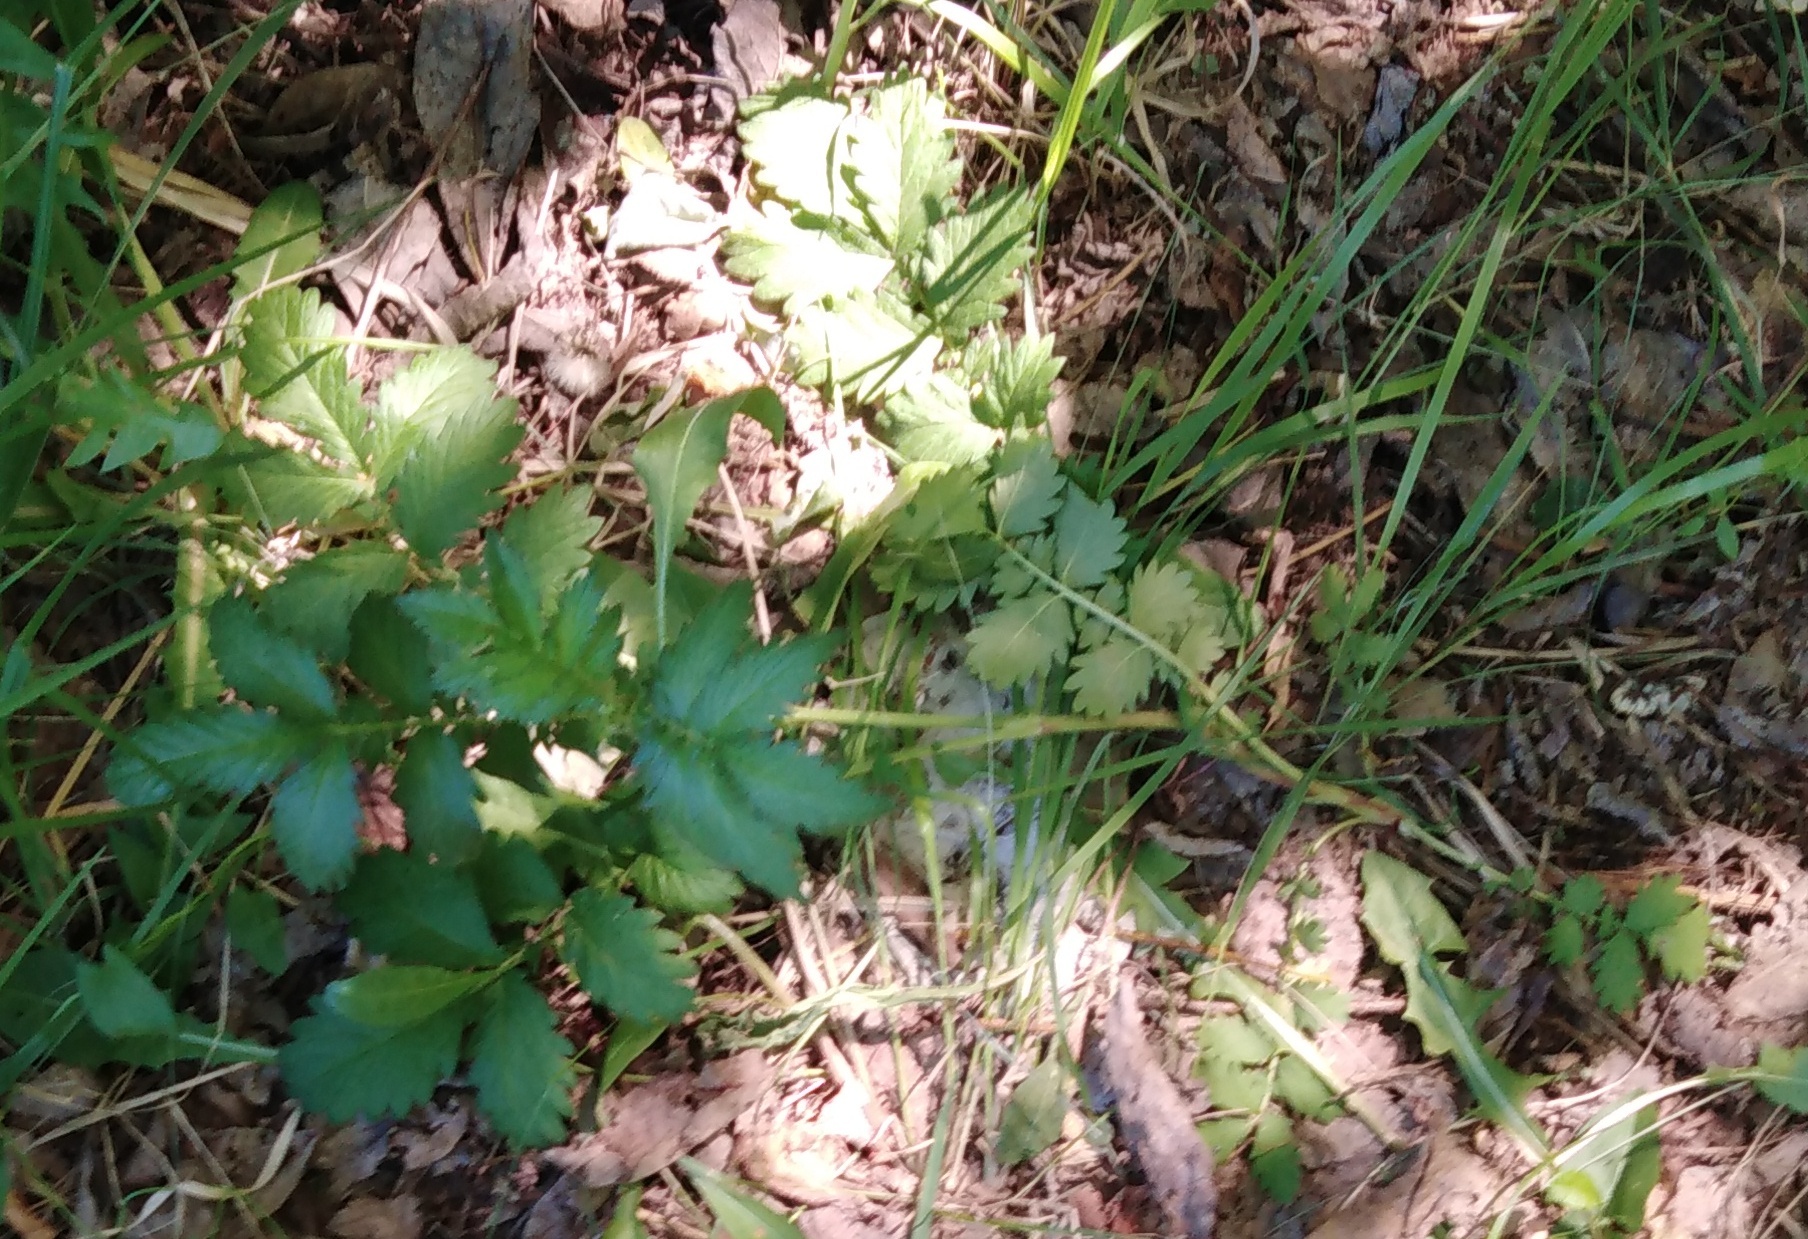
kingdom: Plantae
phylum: Tracheophyta
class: Magnoliopsida
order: Rosales
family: Rosaceae
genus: Agrimonia
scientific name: Agrimonia eupatoria
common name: Agrimony
